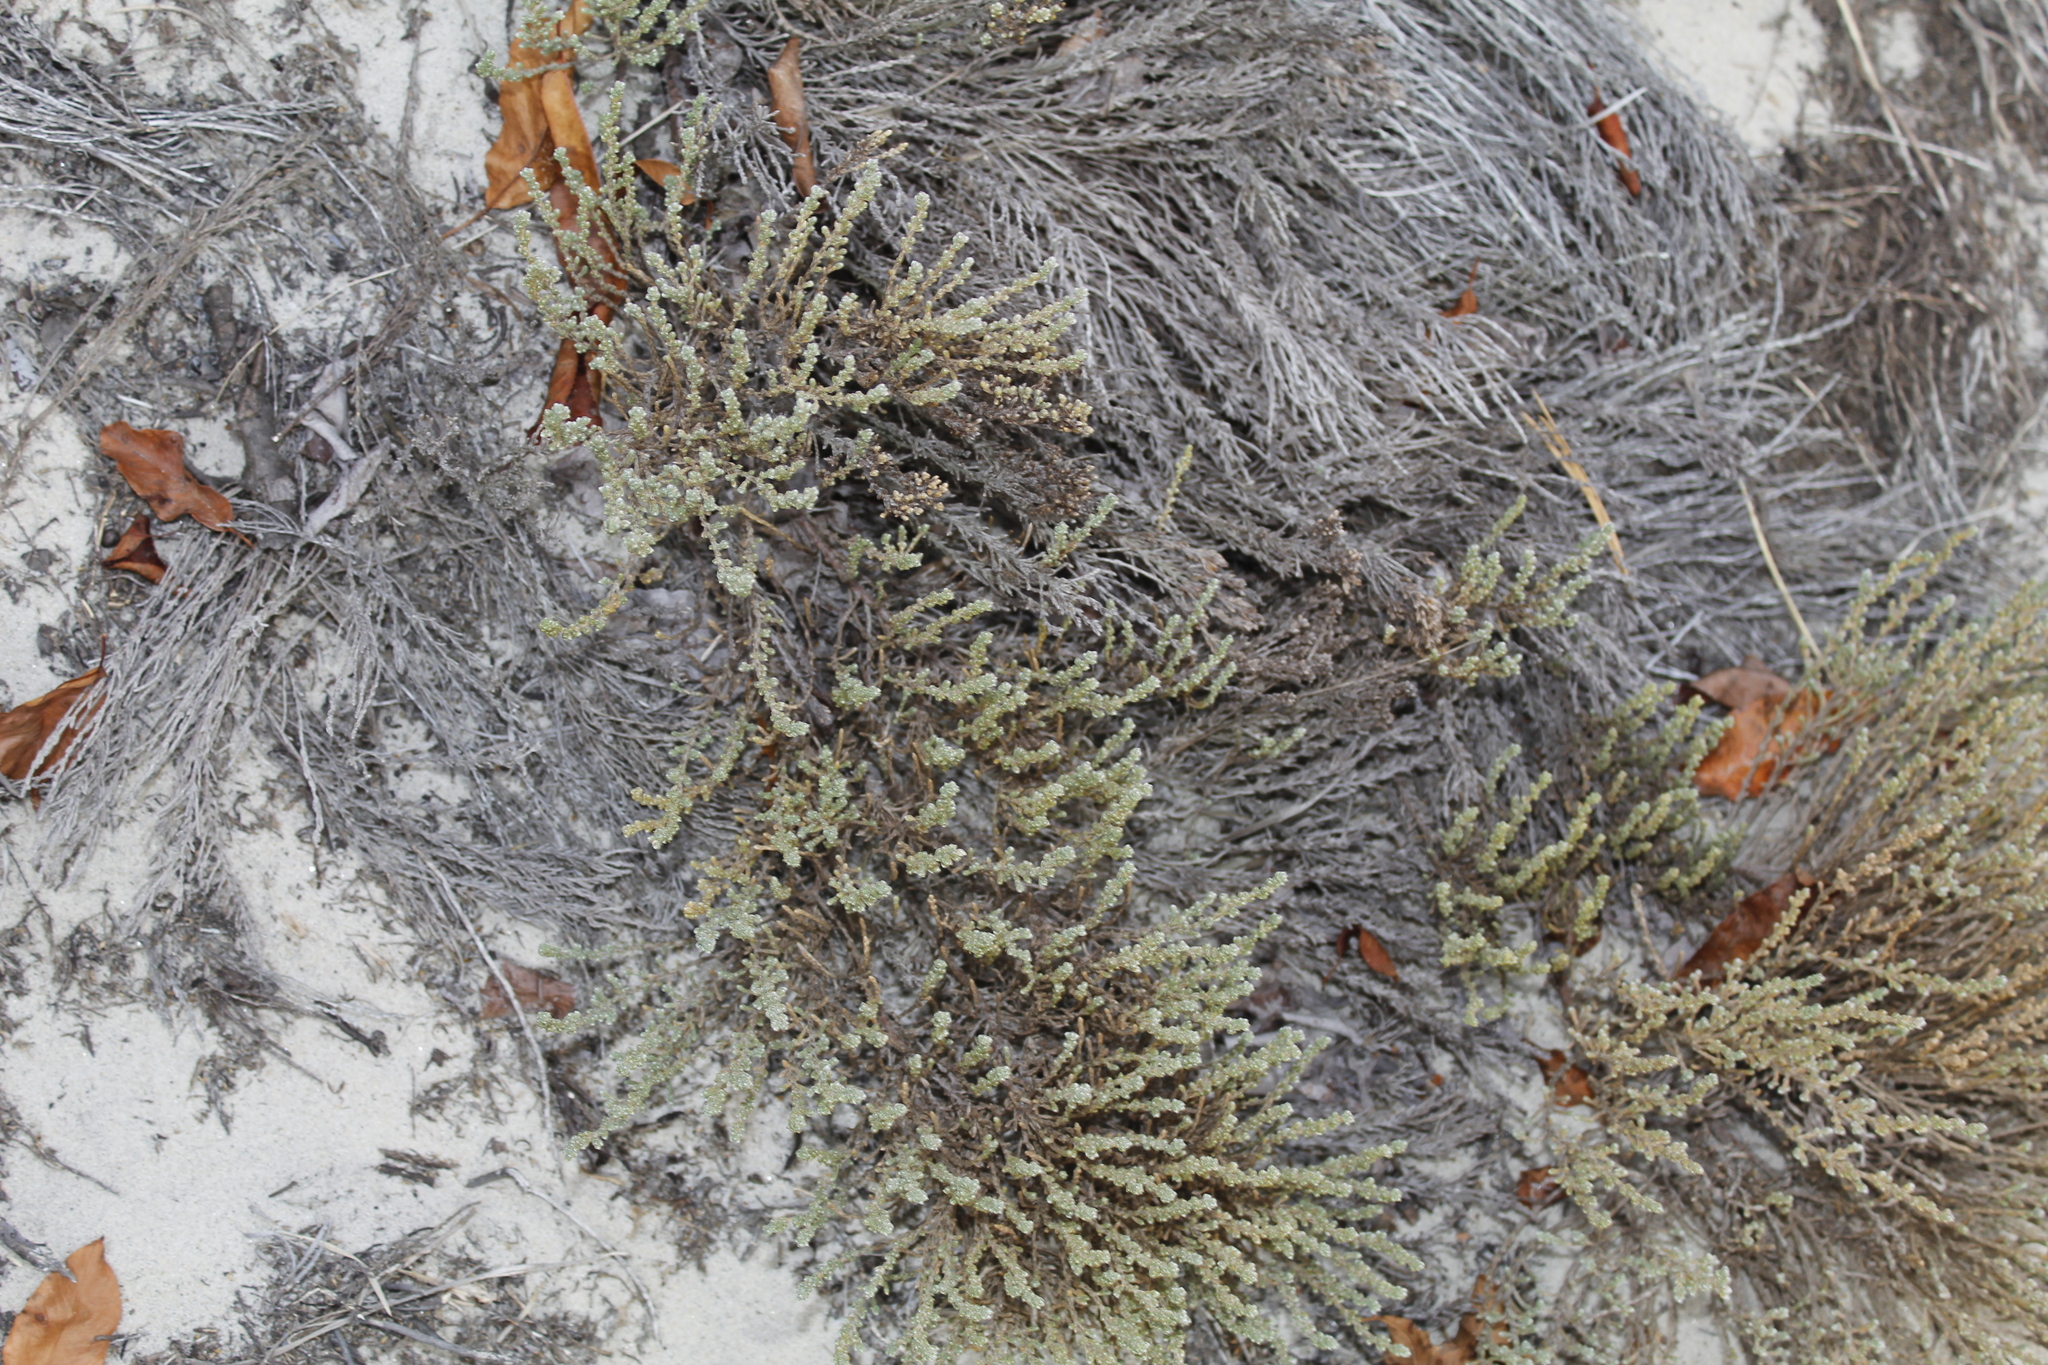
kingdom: Plantae
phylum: Tracheophyta
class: Magnoliopsida
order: Malvales
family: Cistaceae
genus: Hudsonia
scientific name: Hudsonia tomentosa
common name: Beach-heath
